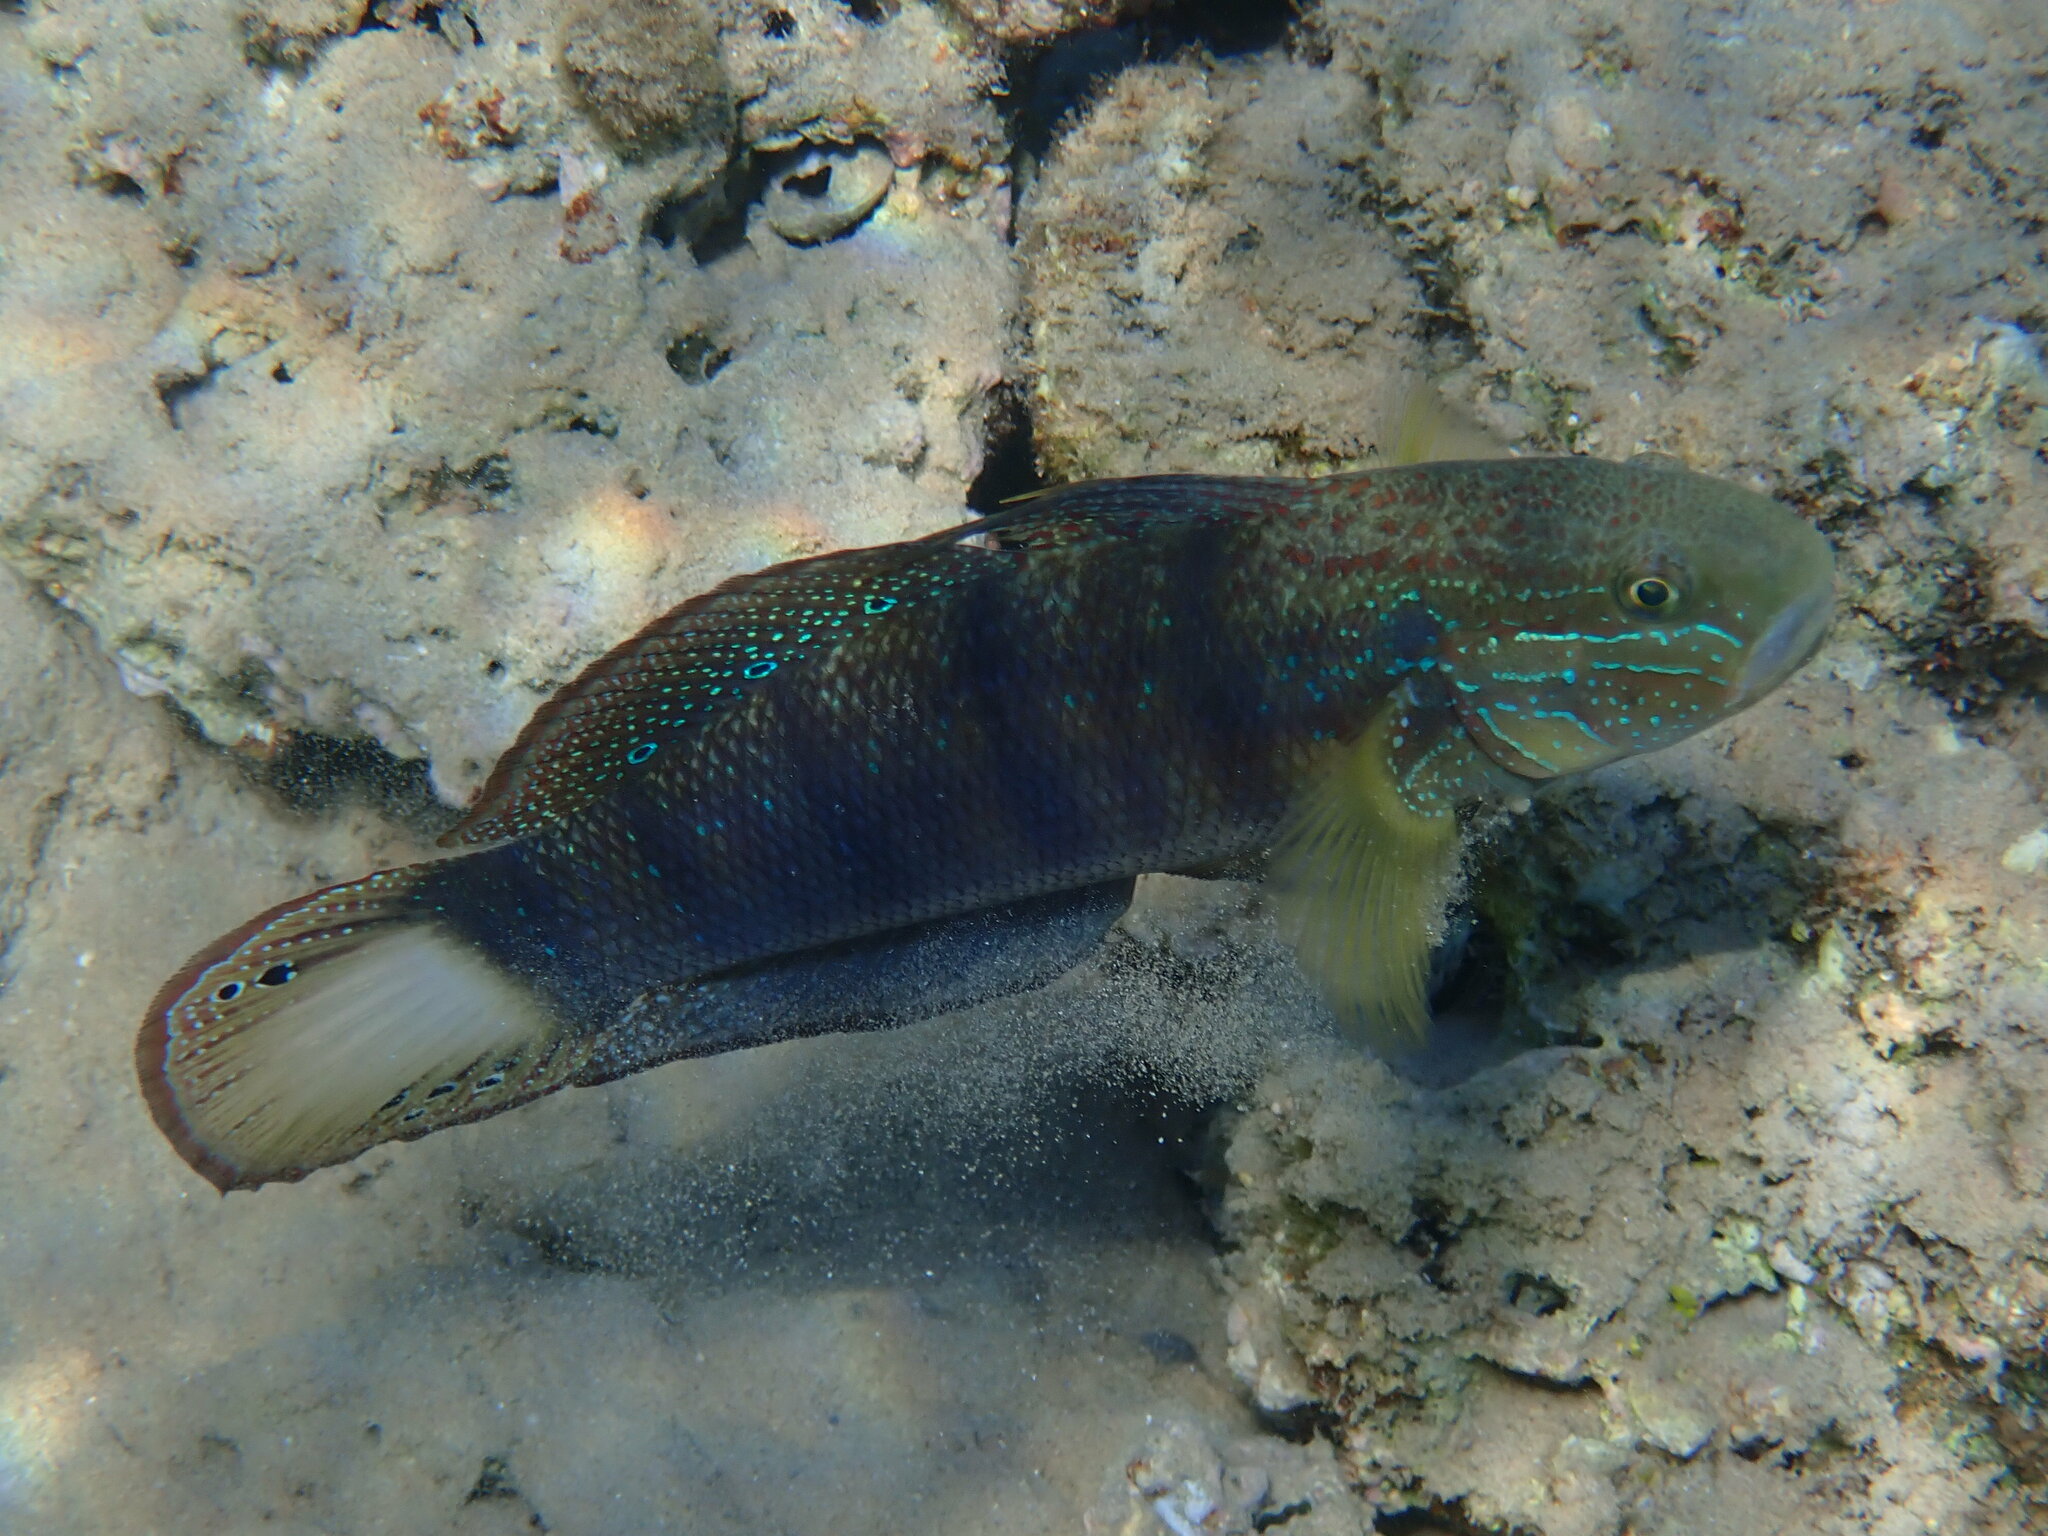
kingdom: Animalia
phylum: Chordata
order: Perciformes
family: Gobiidae
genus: Amblygobius
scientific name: Amblygobius albimaculatus
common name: Butterfly goby
